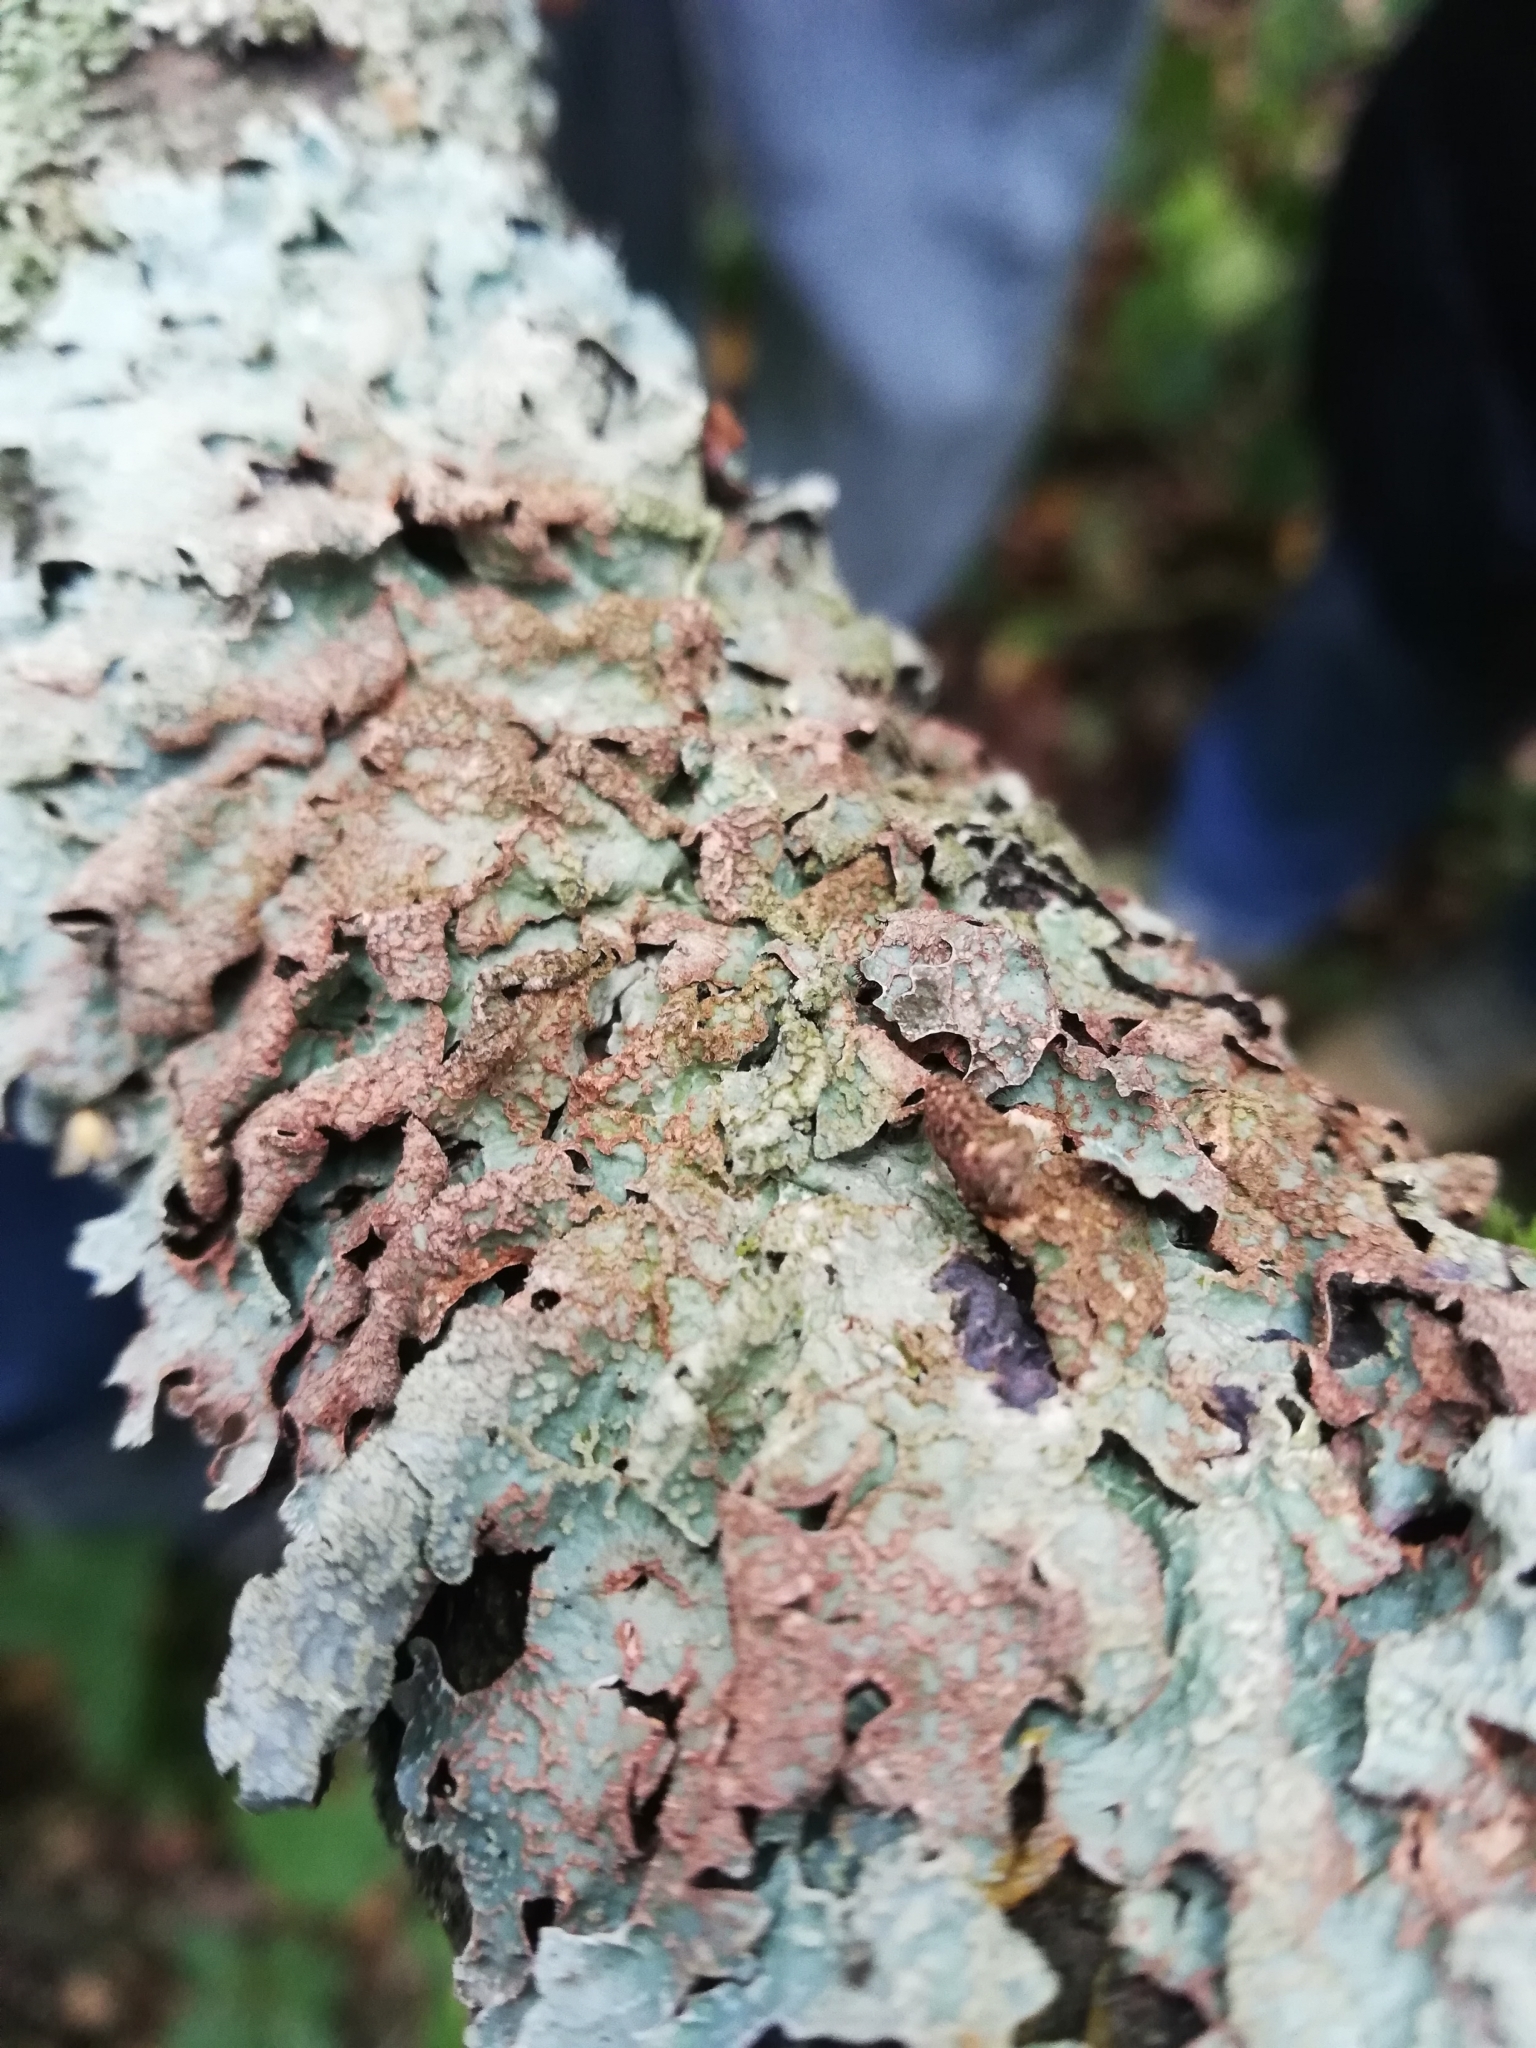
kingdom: Fungi
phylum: Ascomycota
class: Lecanoromycetes
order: Lecanorales
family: Parmeliaceae
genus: Parmelia
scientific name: Parmelia sulcata
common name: Netted shield lichen
